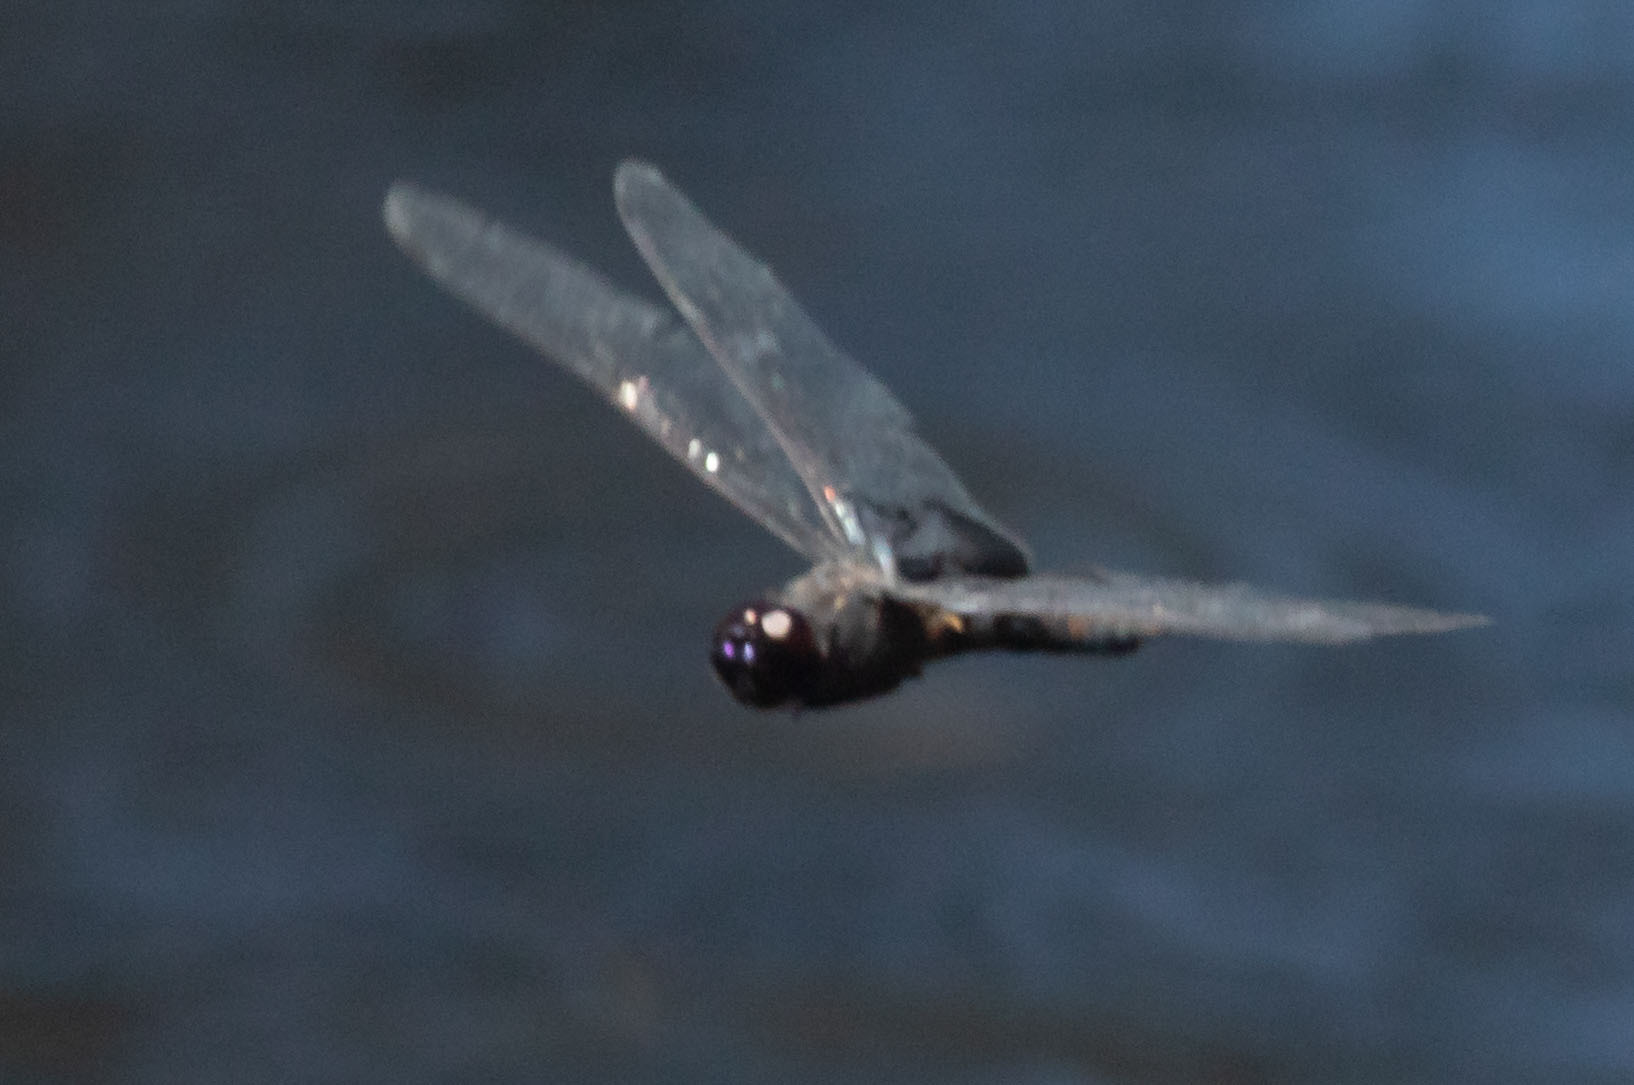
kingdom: Animalia
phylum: Arthropoda
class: Insecta
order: Odonata
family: Libellulidae
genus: Tramea
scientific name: Tramea lacerata
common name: Black saddlebags
